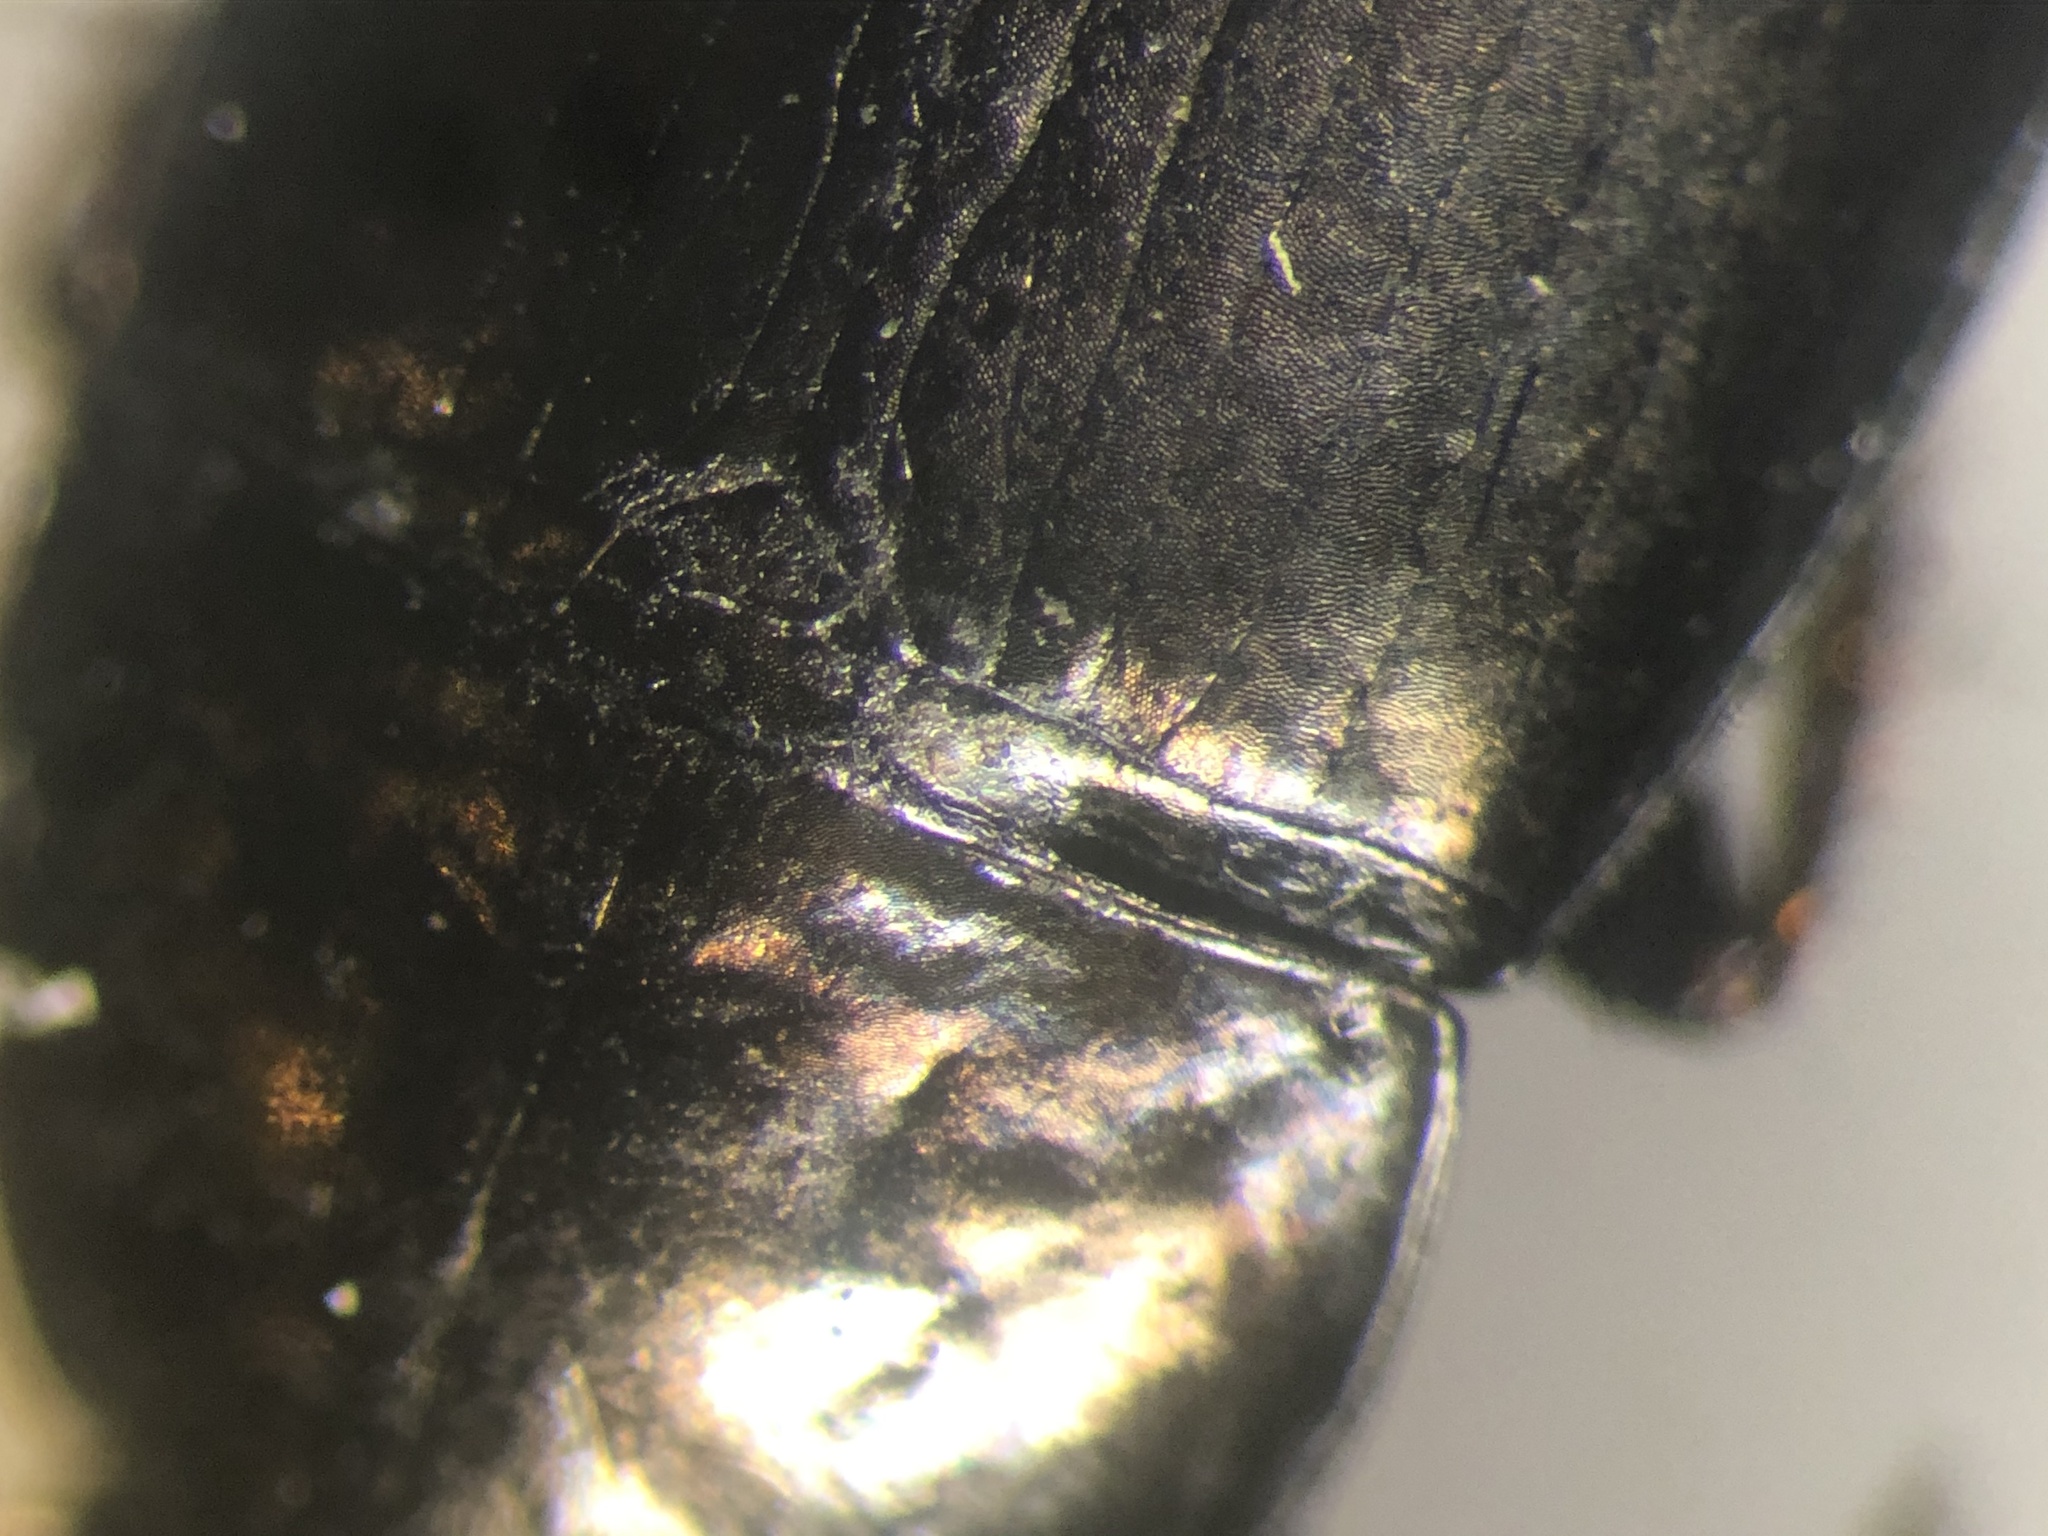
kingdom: Animalia
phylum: Arthropoda
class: Insecta
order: Coleoptera
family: Carabidae
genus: Amara
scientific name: Amara erratica
